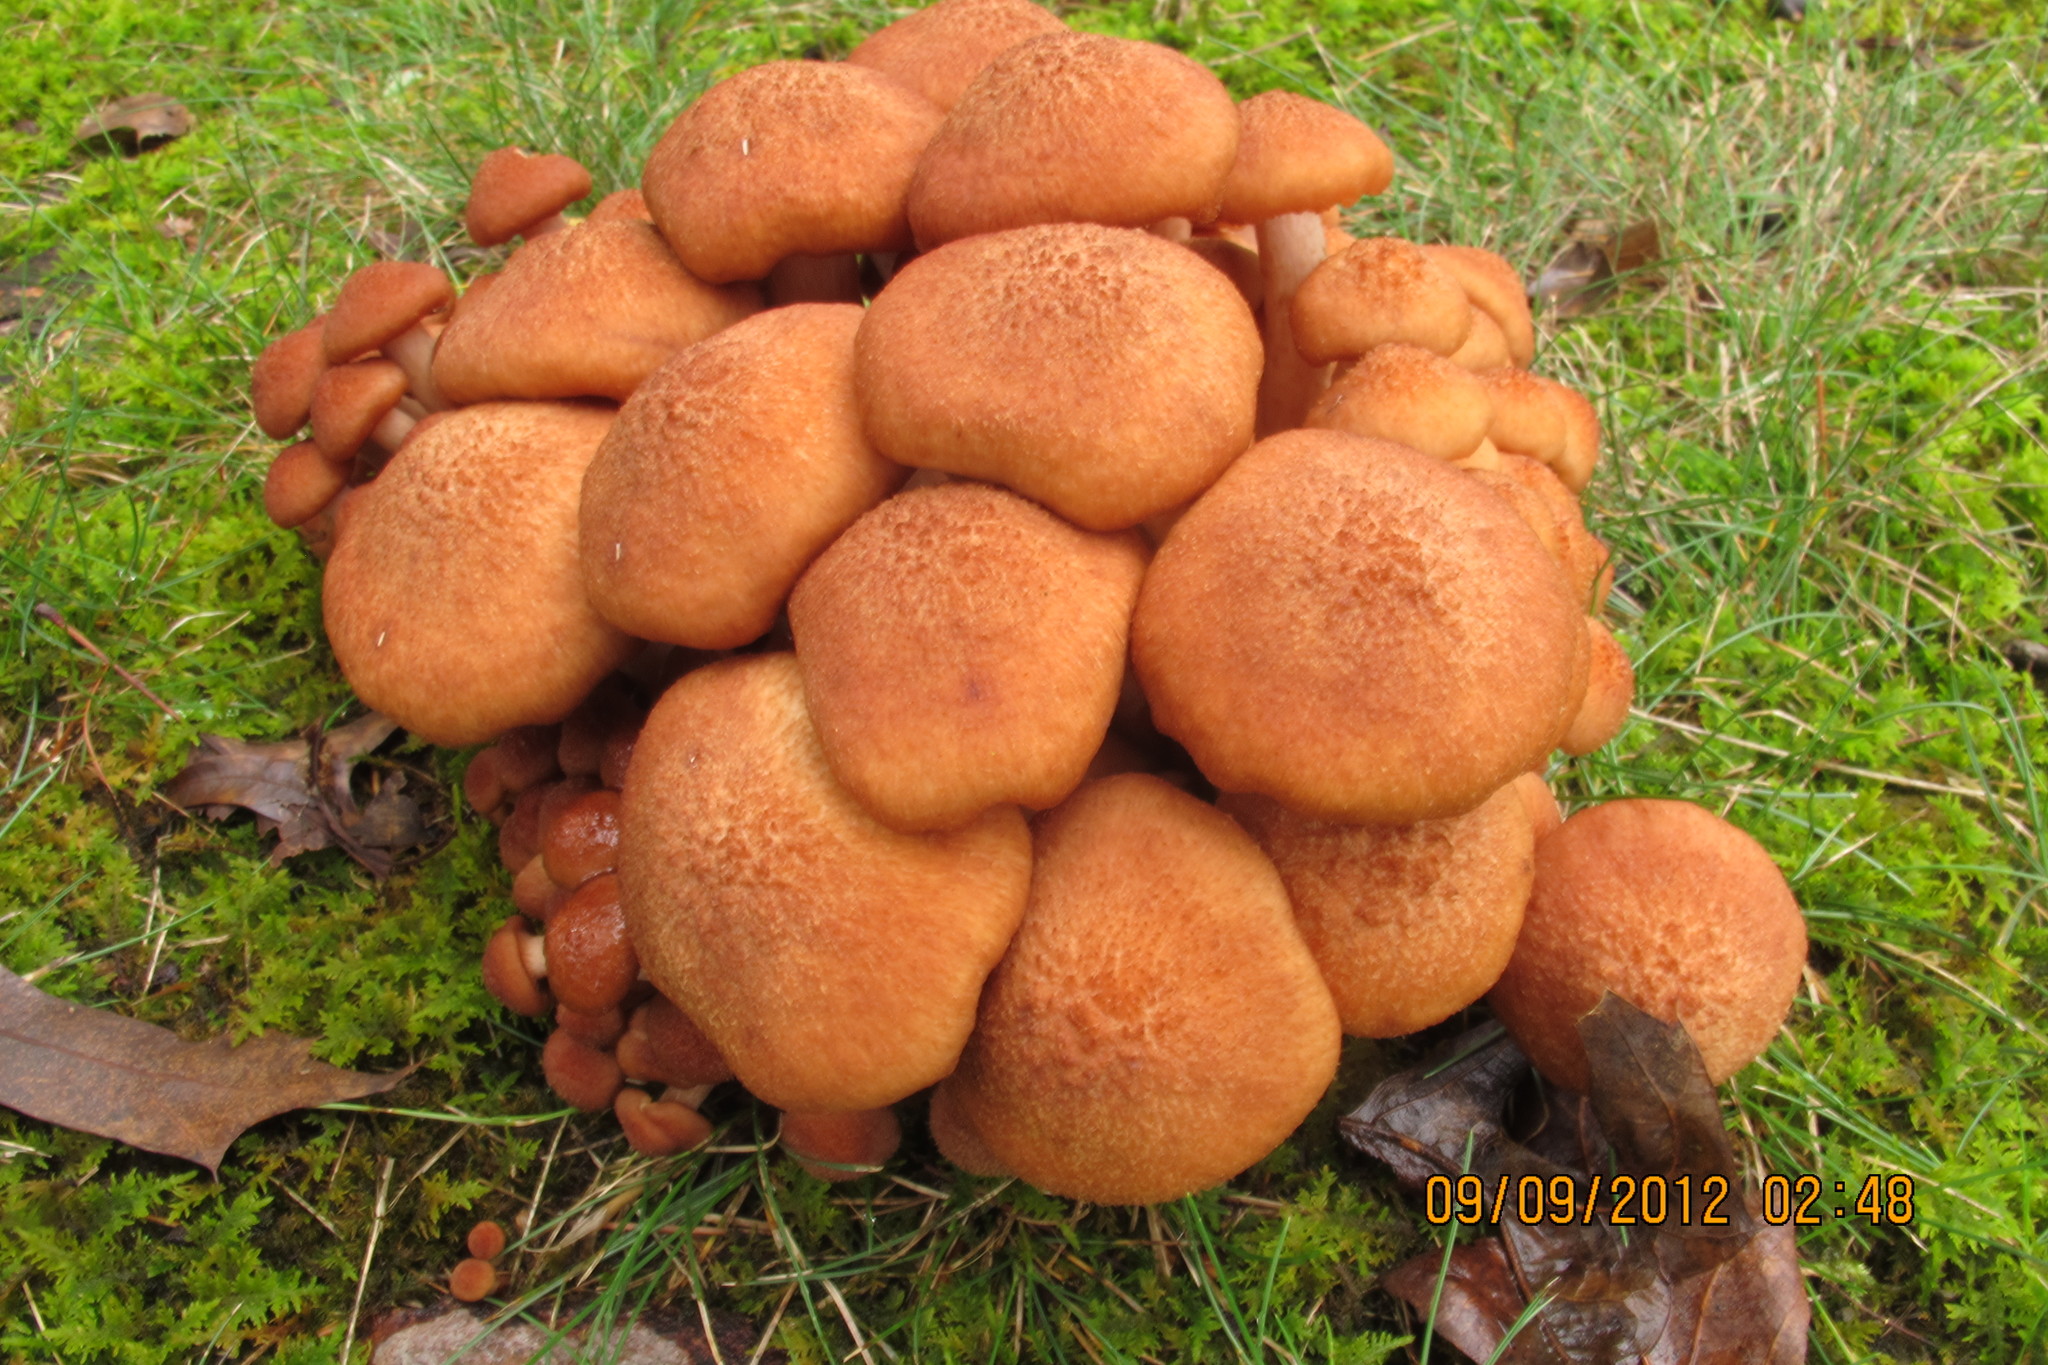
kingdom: Fungi
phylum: Basidiomycota
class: Agaricomycetes
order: Agaricales
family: Physalacriaceae
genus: Desarmillaria
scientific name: Desarmillaria caespitosa
